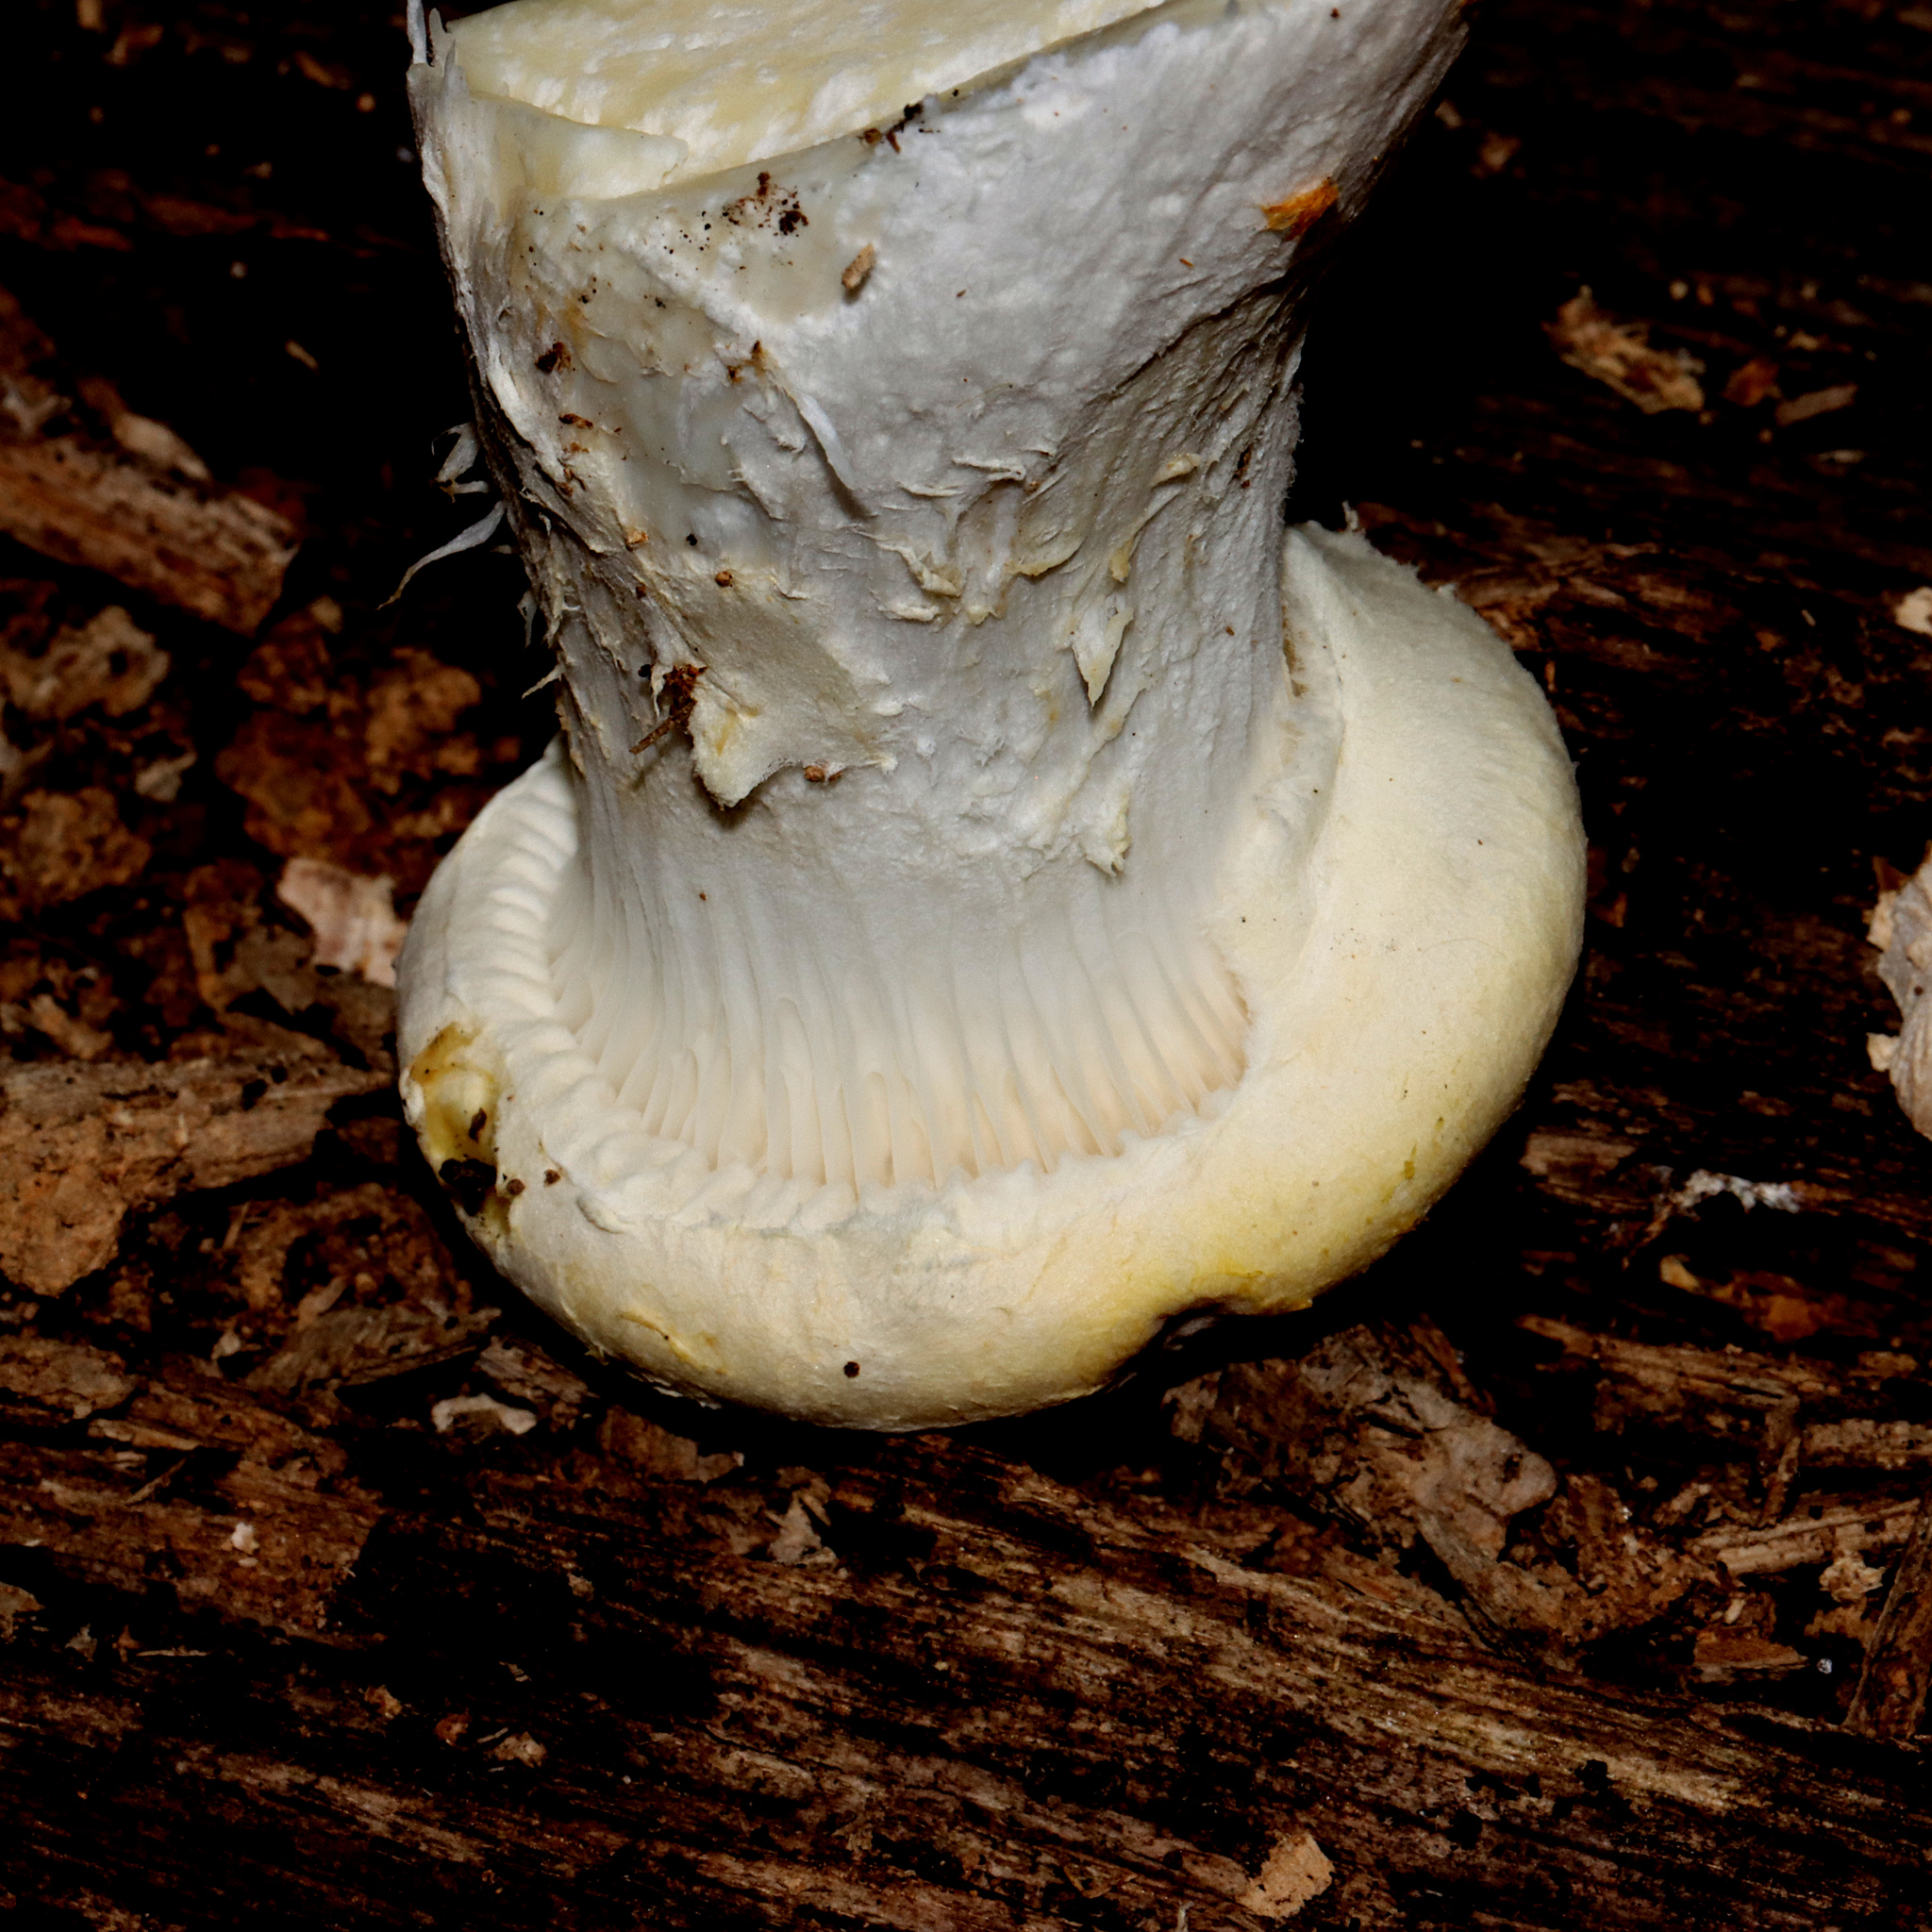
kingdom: Fungi
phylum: Basidiomycota
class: Agaricomycetes
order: Polyporales
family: Polyporaceae
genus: Lentinus
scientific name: Lentinus levis
